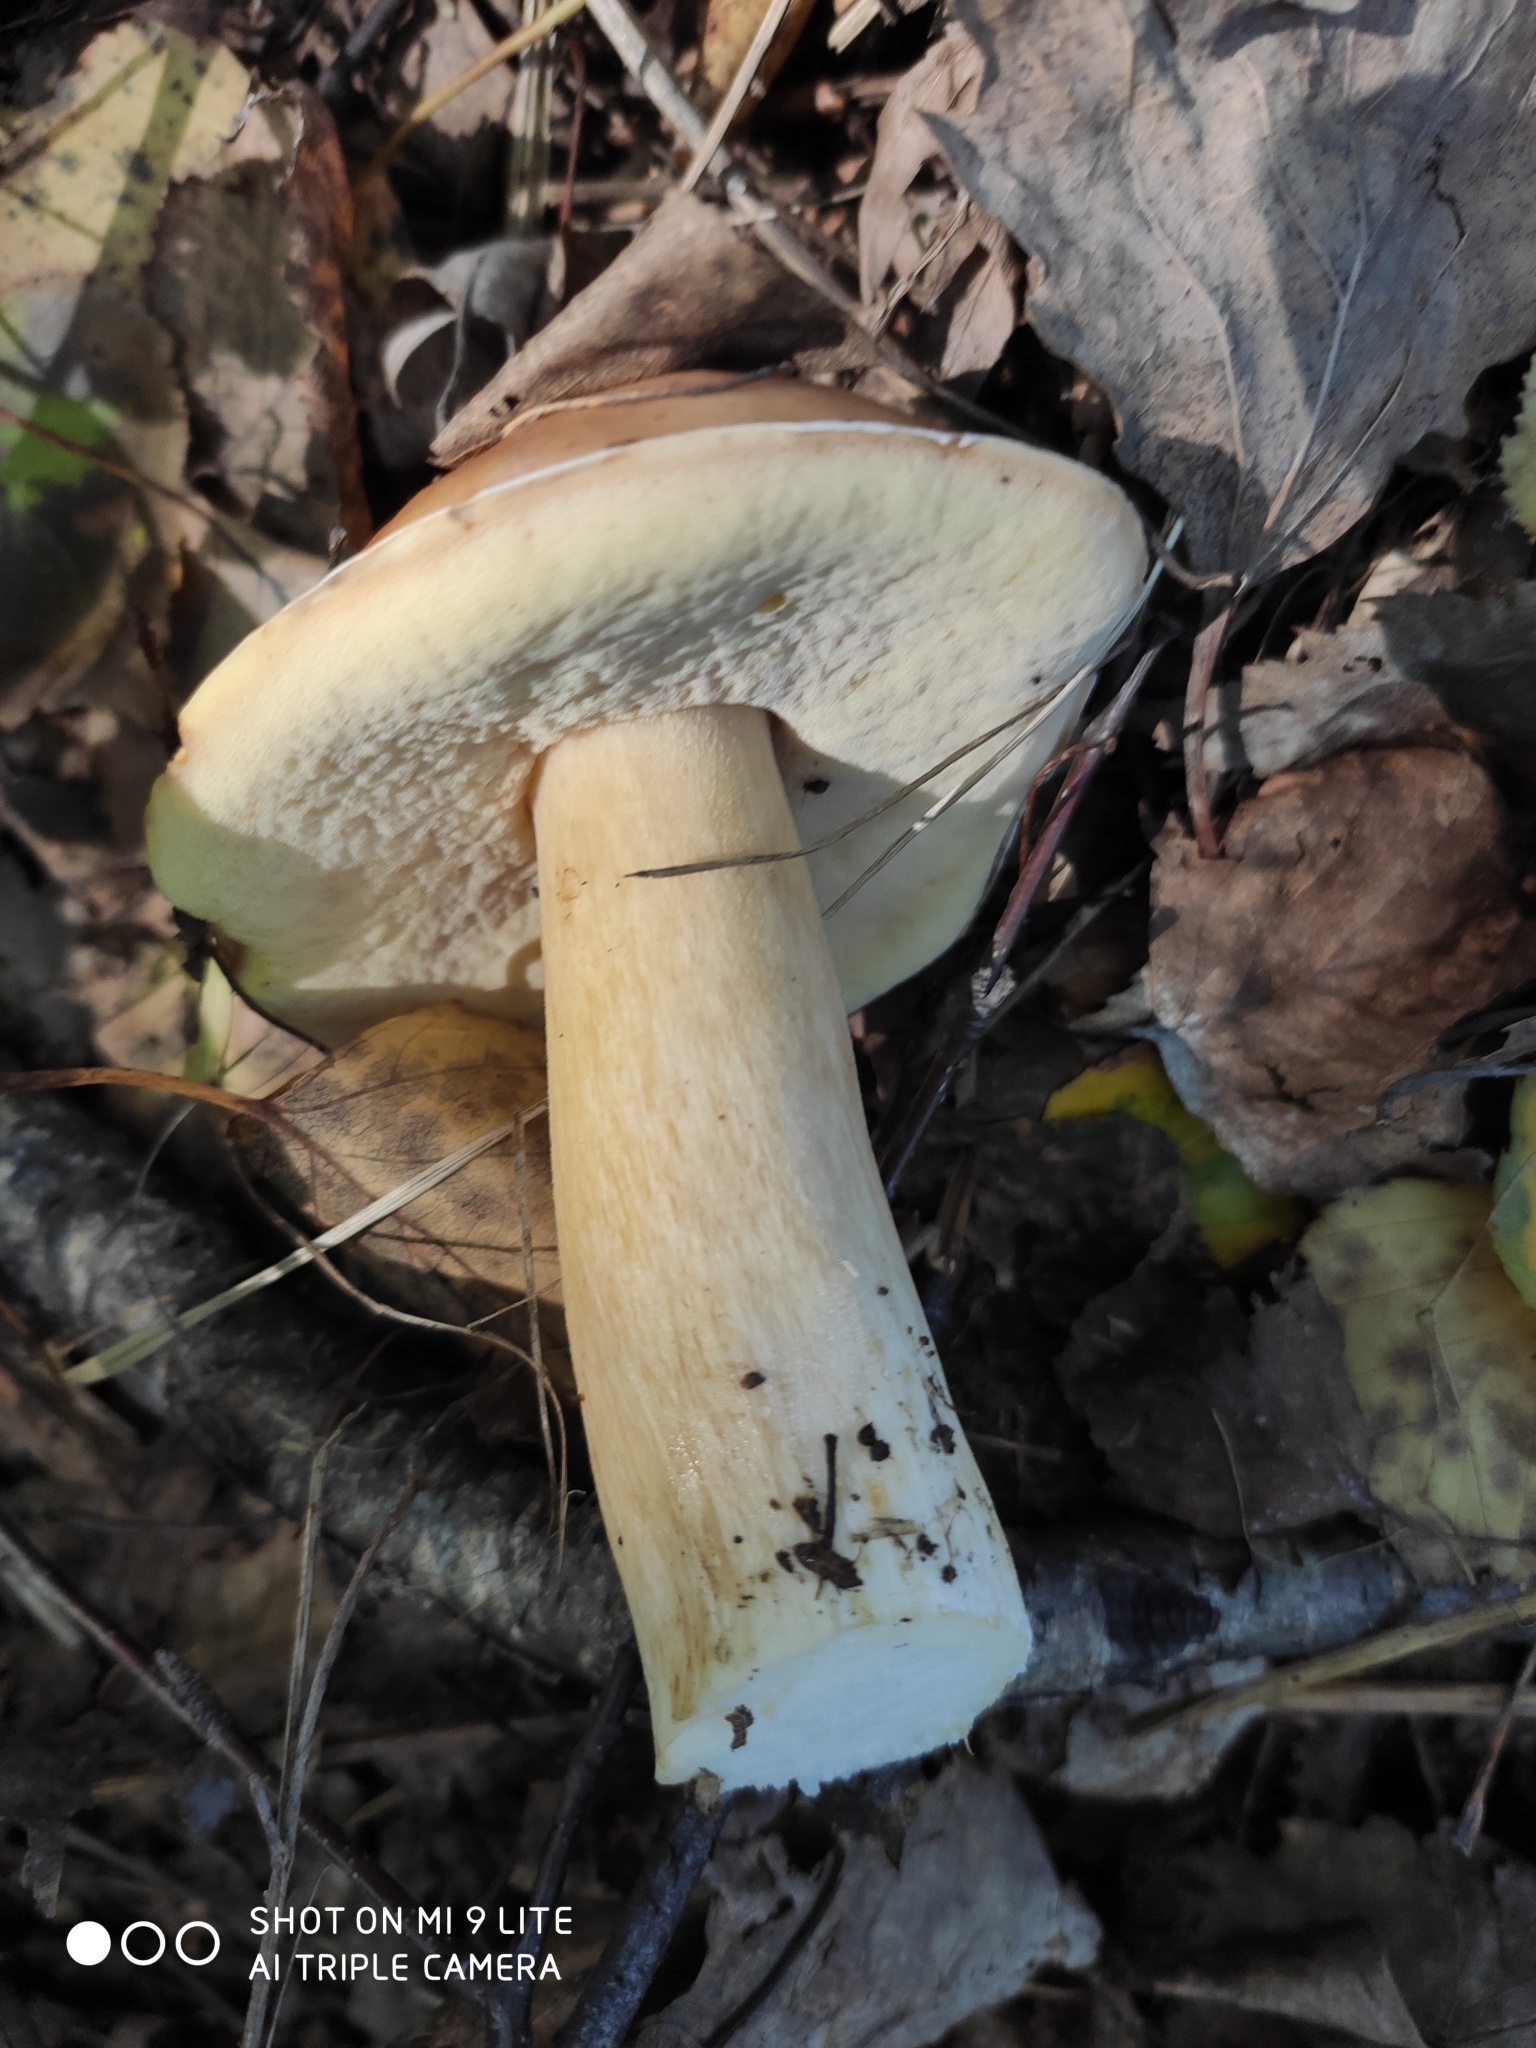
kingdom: Fungi
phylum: Basidiomycota
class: Agaricomycetes
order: Boletales
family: Boletaceae
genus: Boletus
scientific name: Boletus edulis
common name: Cep
